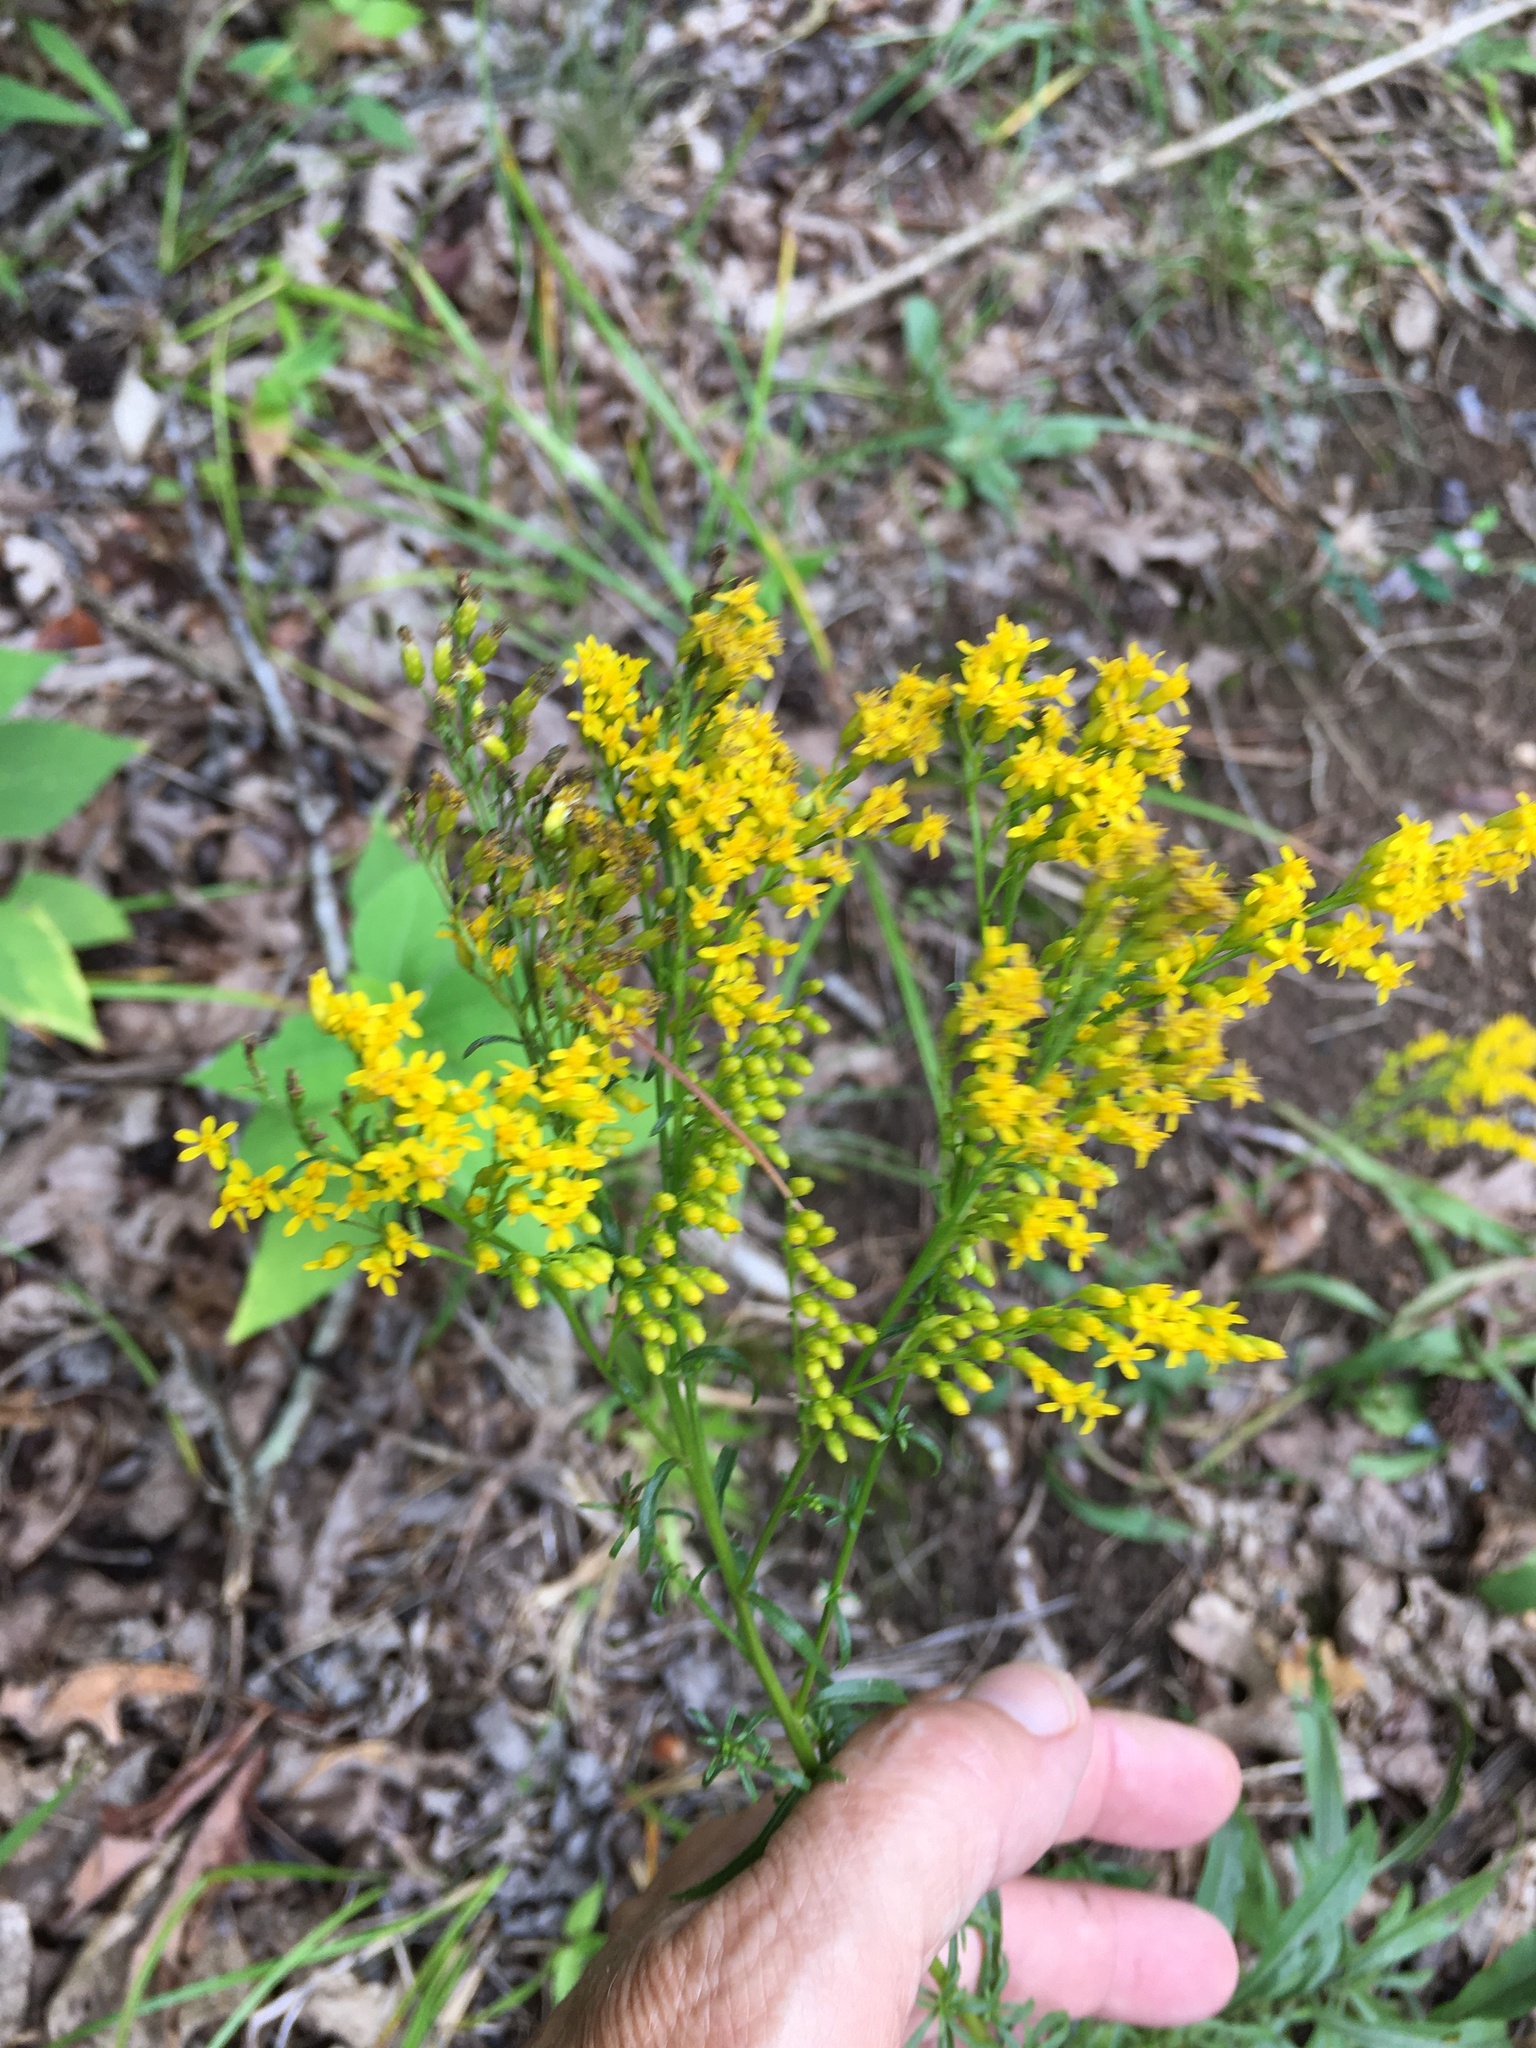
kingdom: Plantae
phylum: Tracheophyta
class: Magnoliopsida
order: Asterales
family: Asteraceae
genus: Solidago
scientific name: Solidago pinetorum
